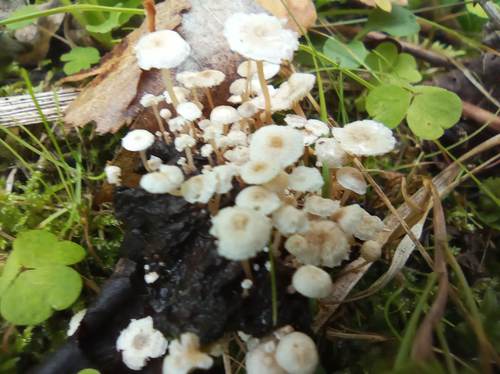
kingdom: Fungi
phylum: Basidiomycota
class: Agaricomycetes
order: Agaricales
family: Tricholomataceae
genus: Collybia
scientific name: Collybia
